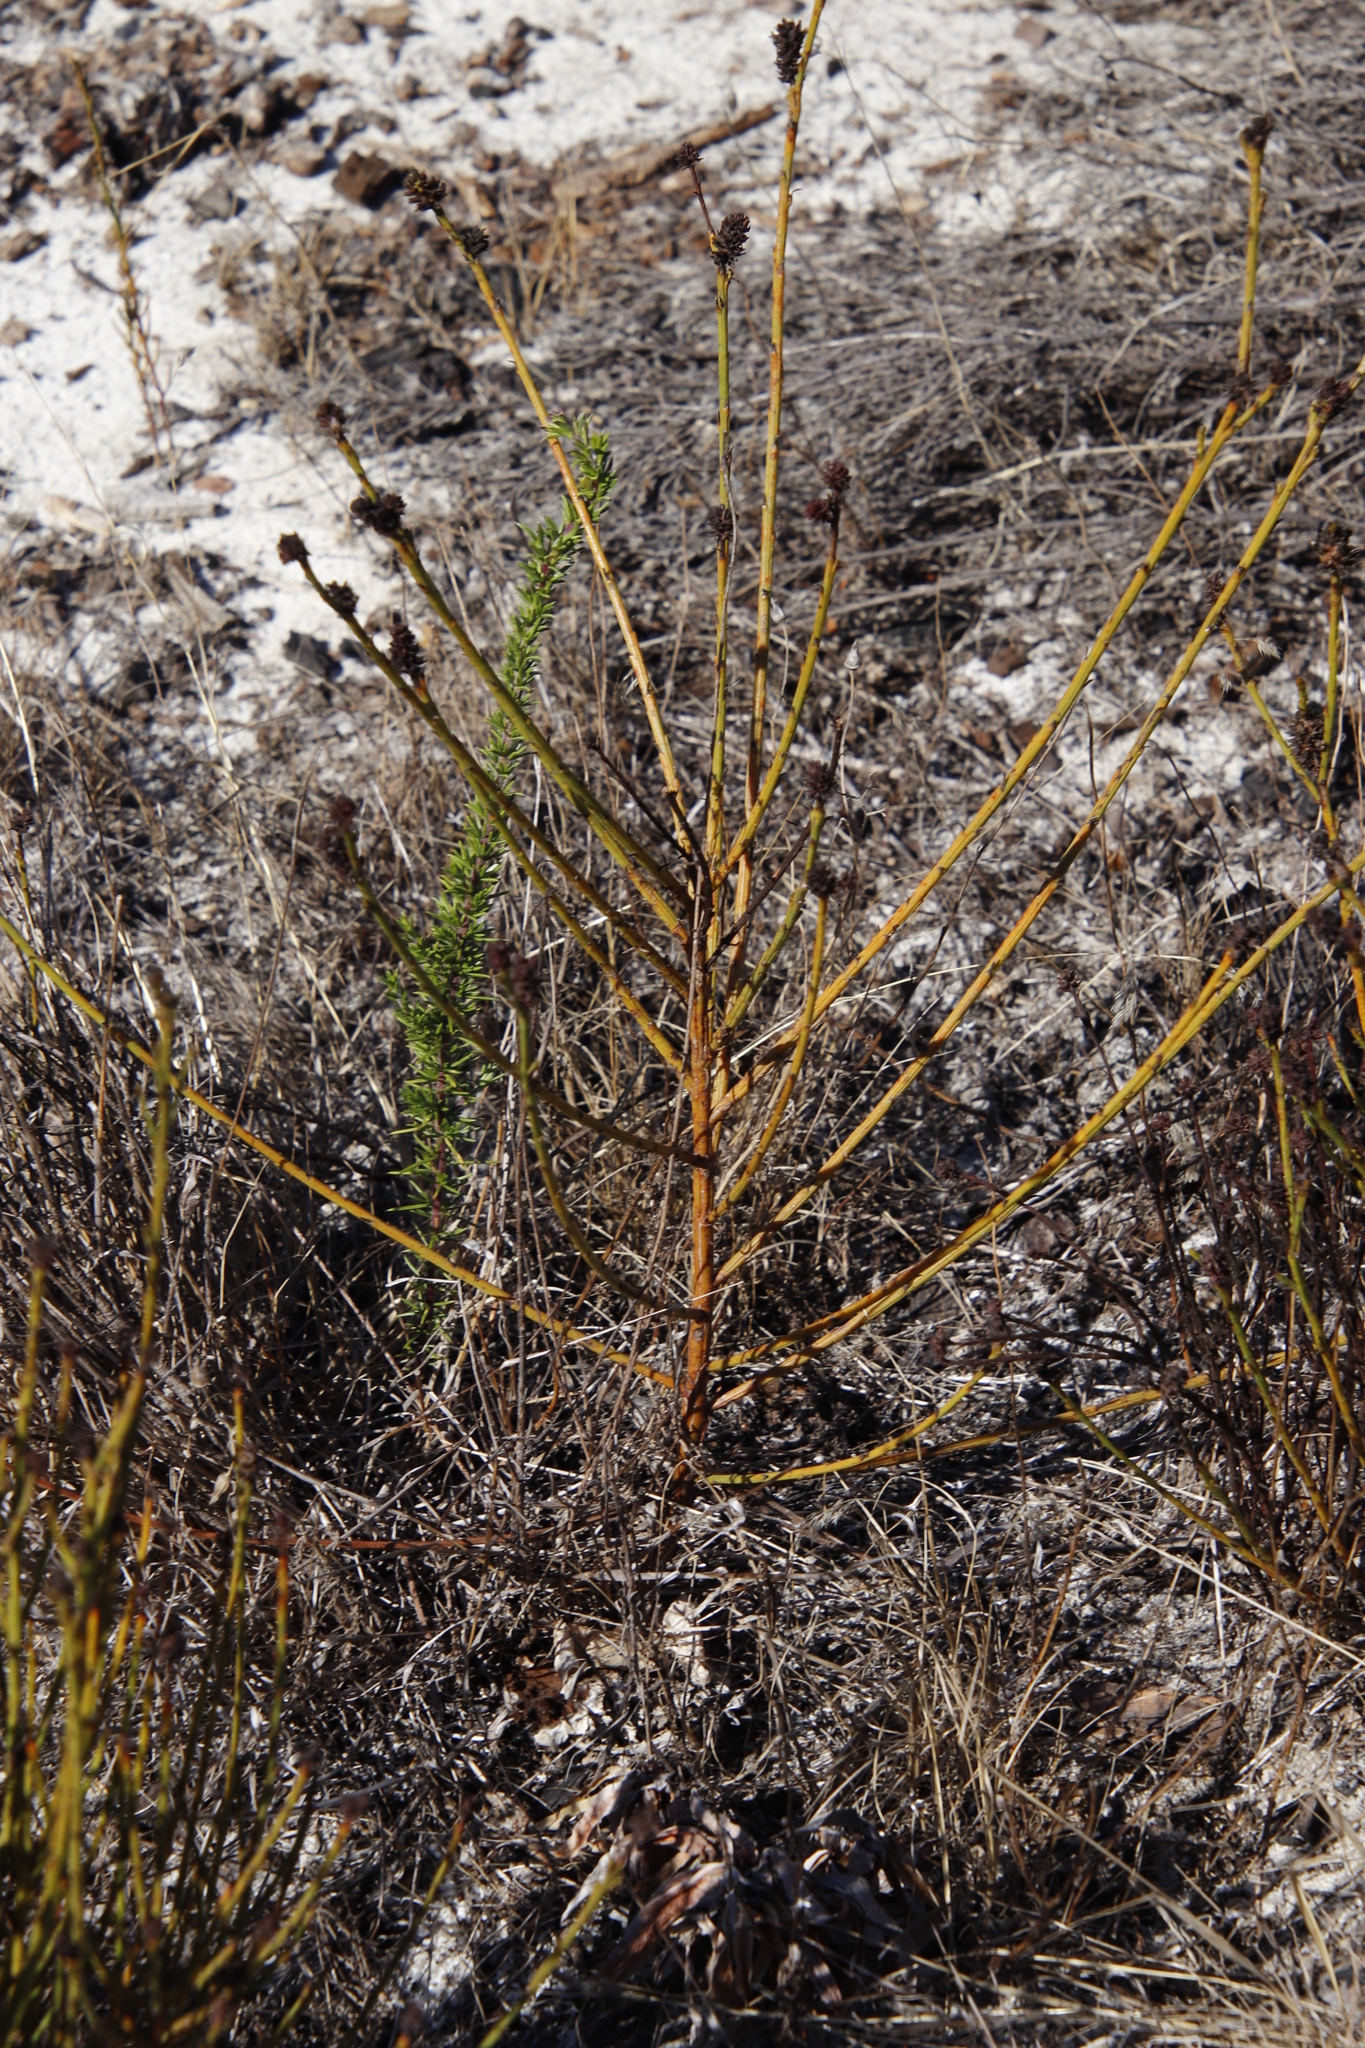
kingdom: Plantae
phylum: Tracheophyta
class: Magnoliopsida
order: Santalales
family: Thesiaceae
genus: Thesium
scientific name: Thesium aggregatum
